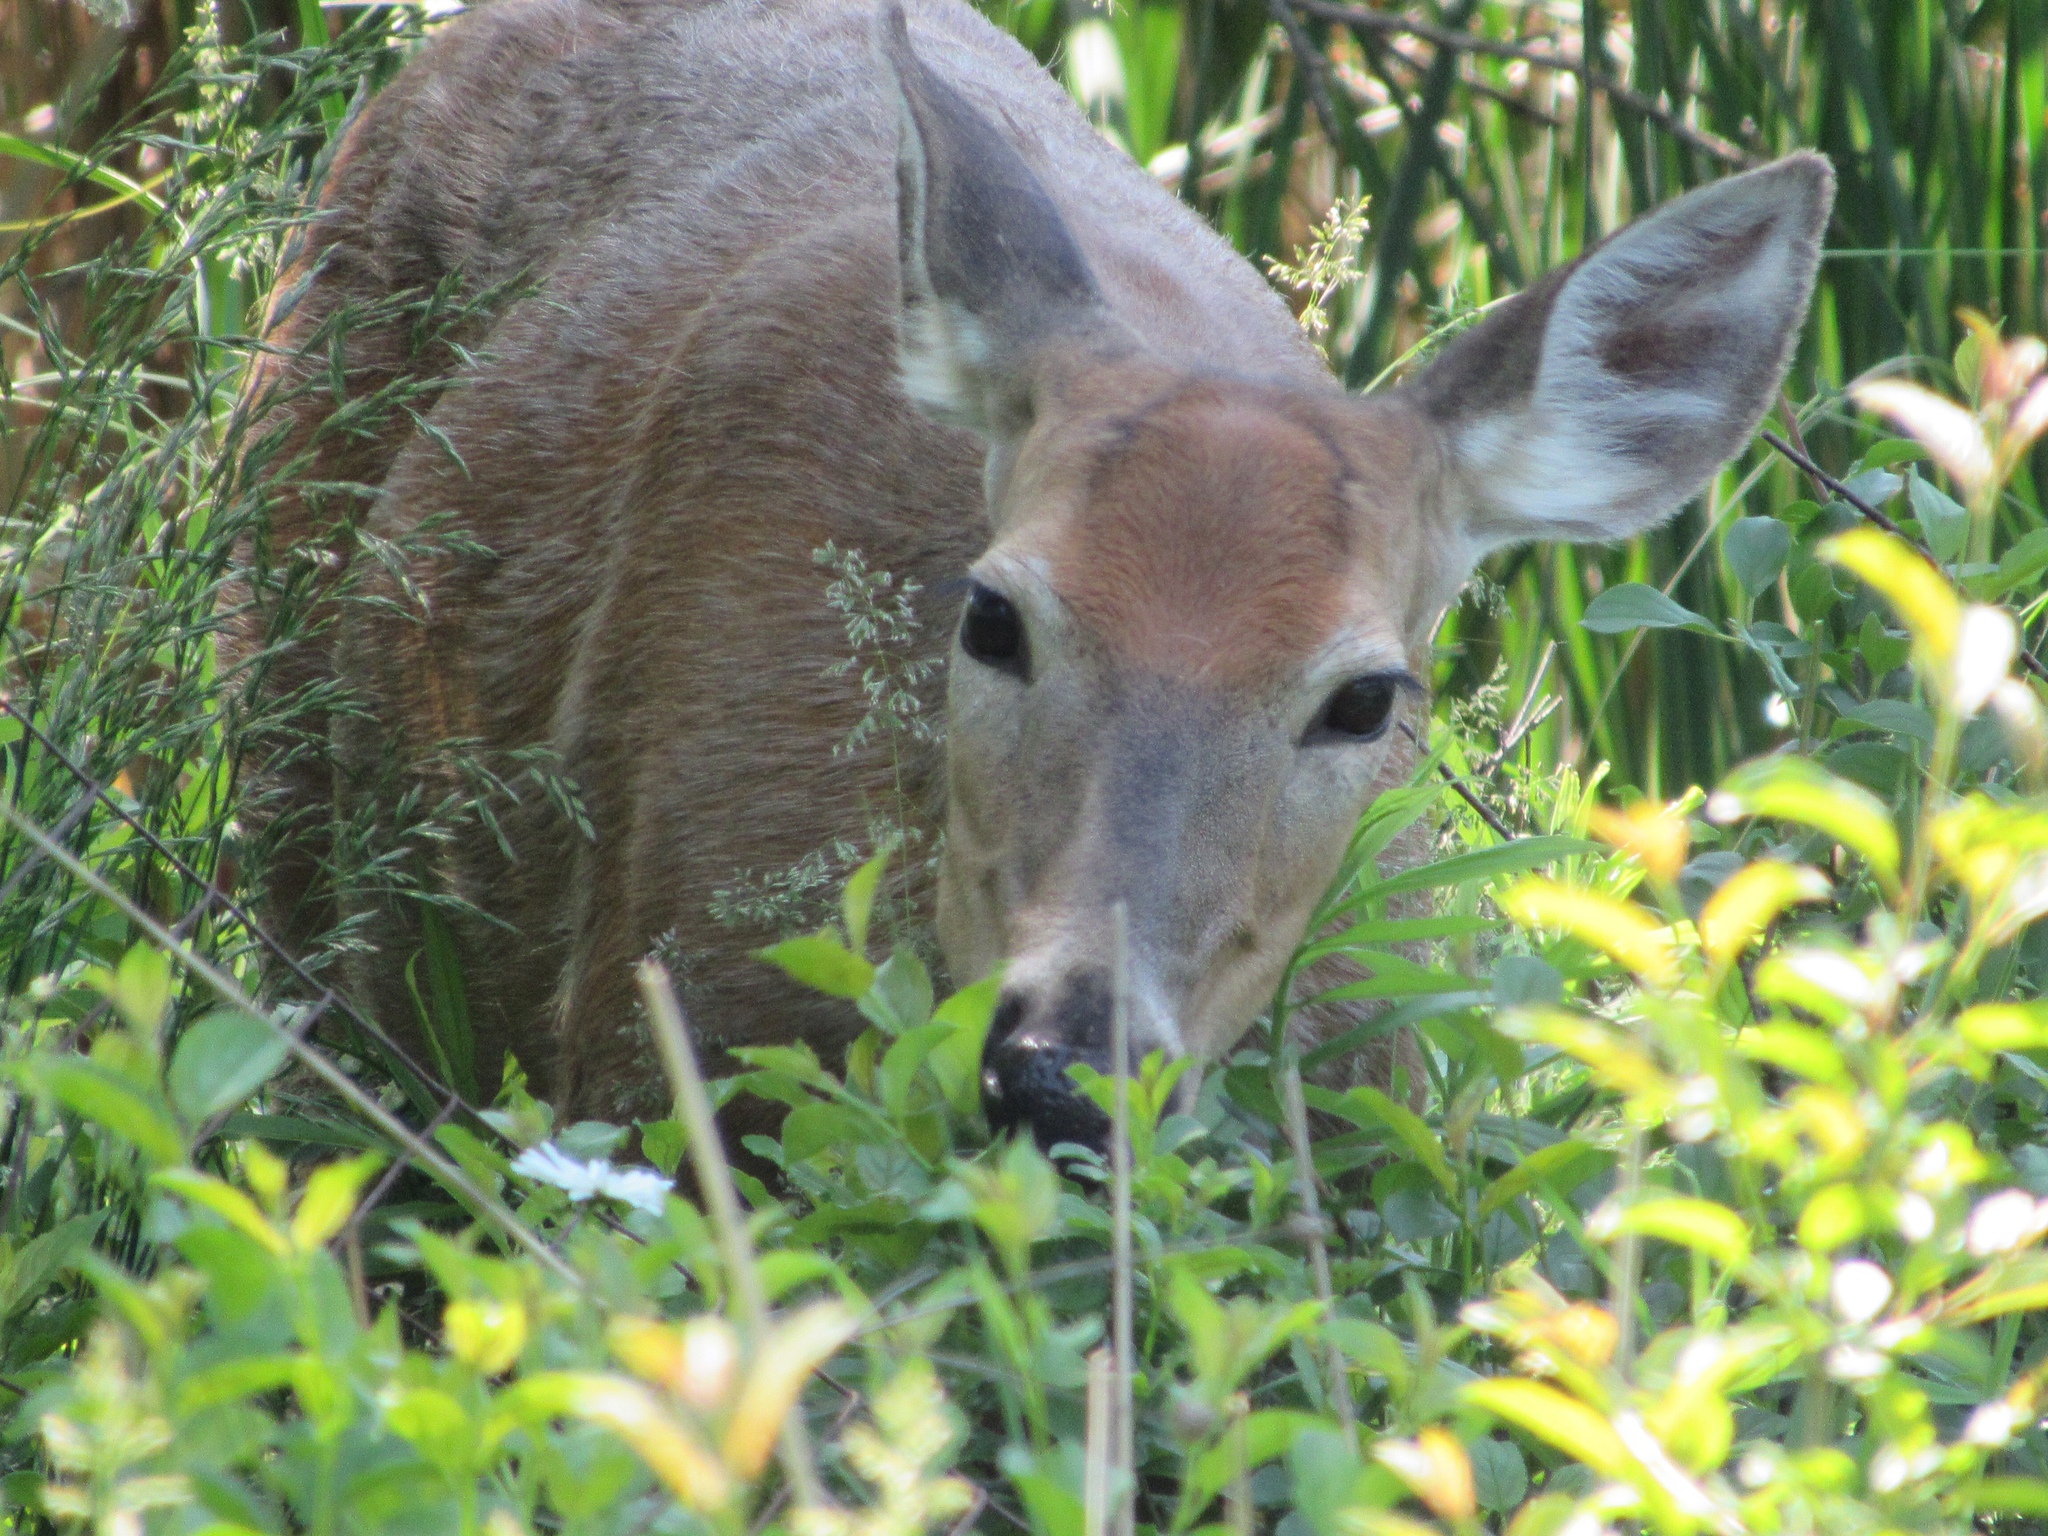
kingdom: Animalia
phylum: Chordata
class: Mammalia
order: Artiodactyla
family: Cervidae
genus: Odocoileus
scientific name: Odocoileus virginianus
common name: White-tailed deer
